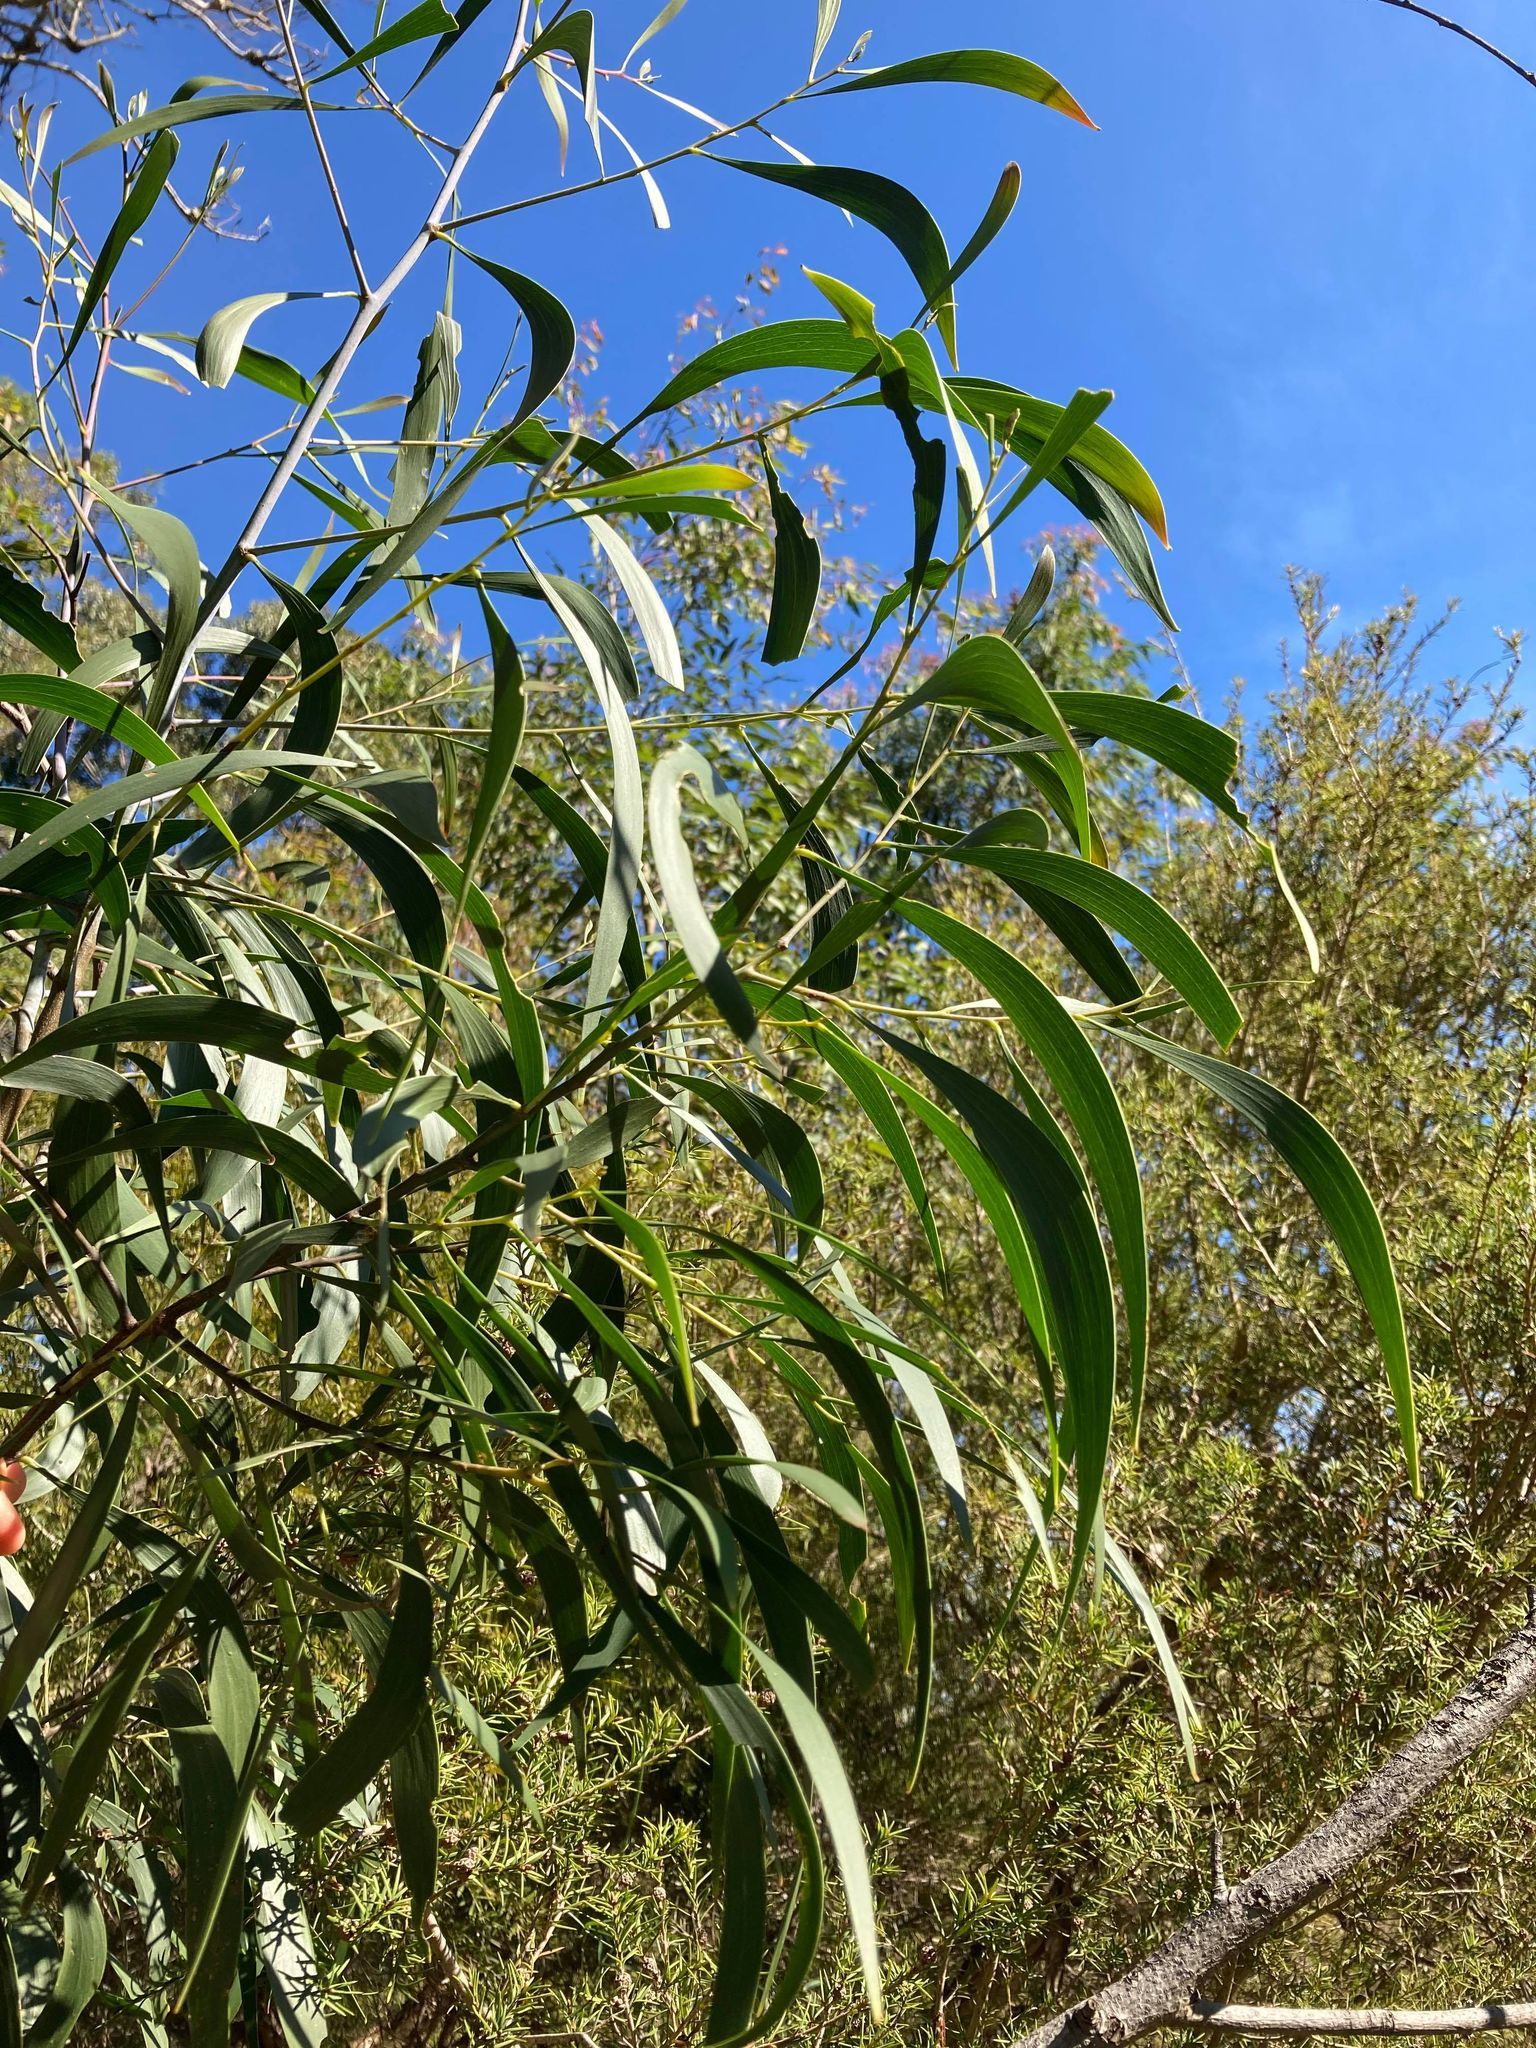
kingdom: Plantae
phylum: Tracheophyta
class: Magnoliopsida
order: Fabales
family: Fabaceae
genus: Acacia
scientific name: Acacia implexa
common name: Black wattle
